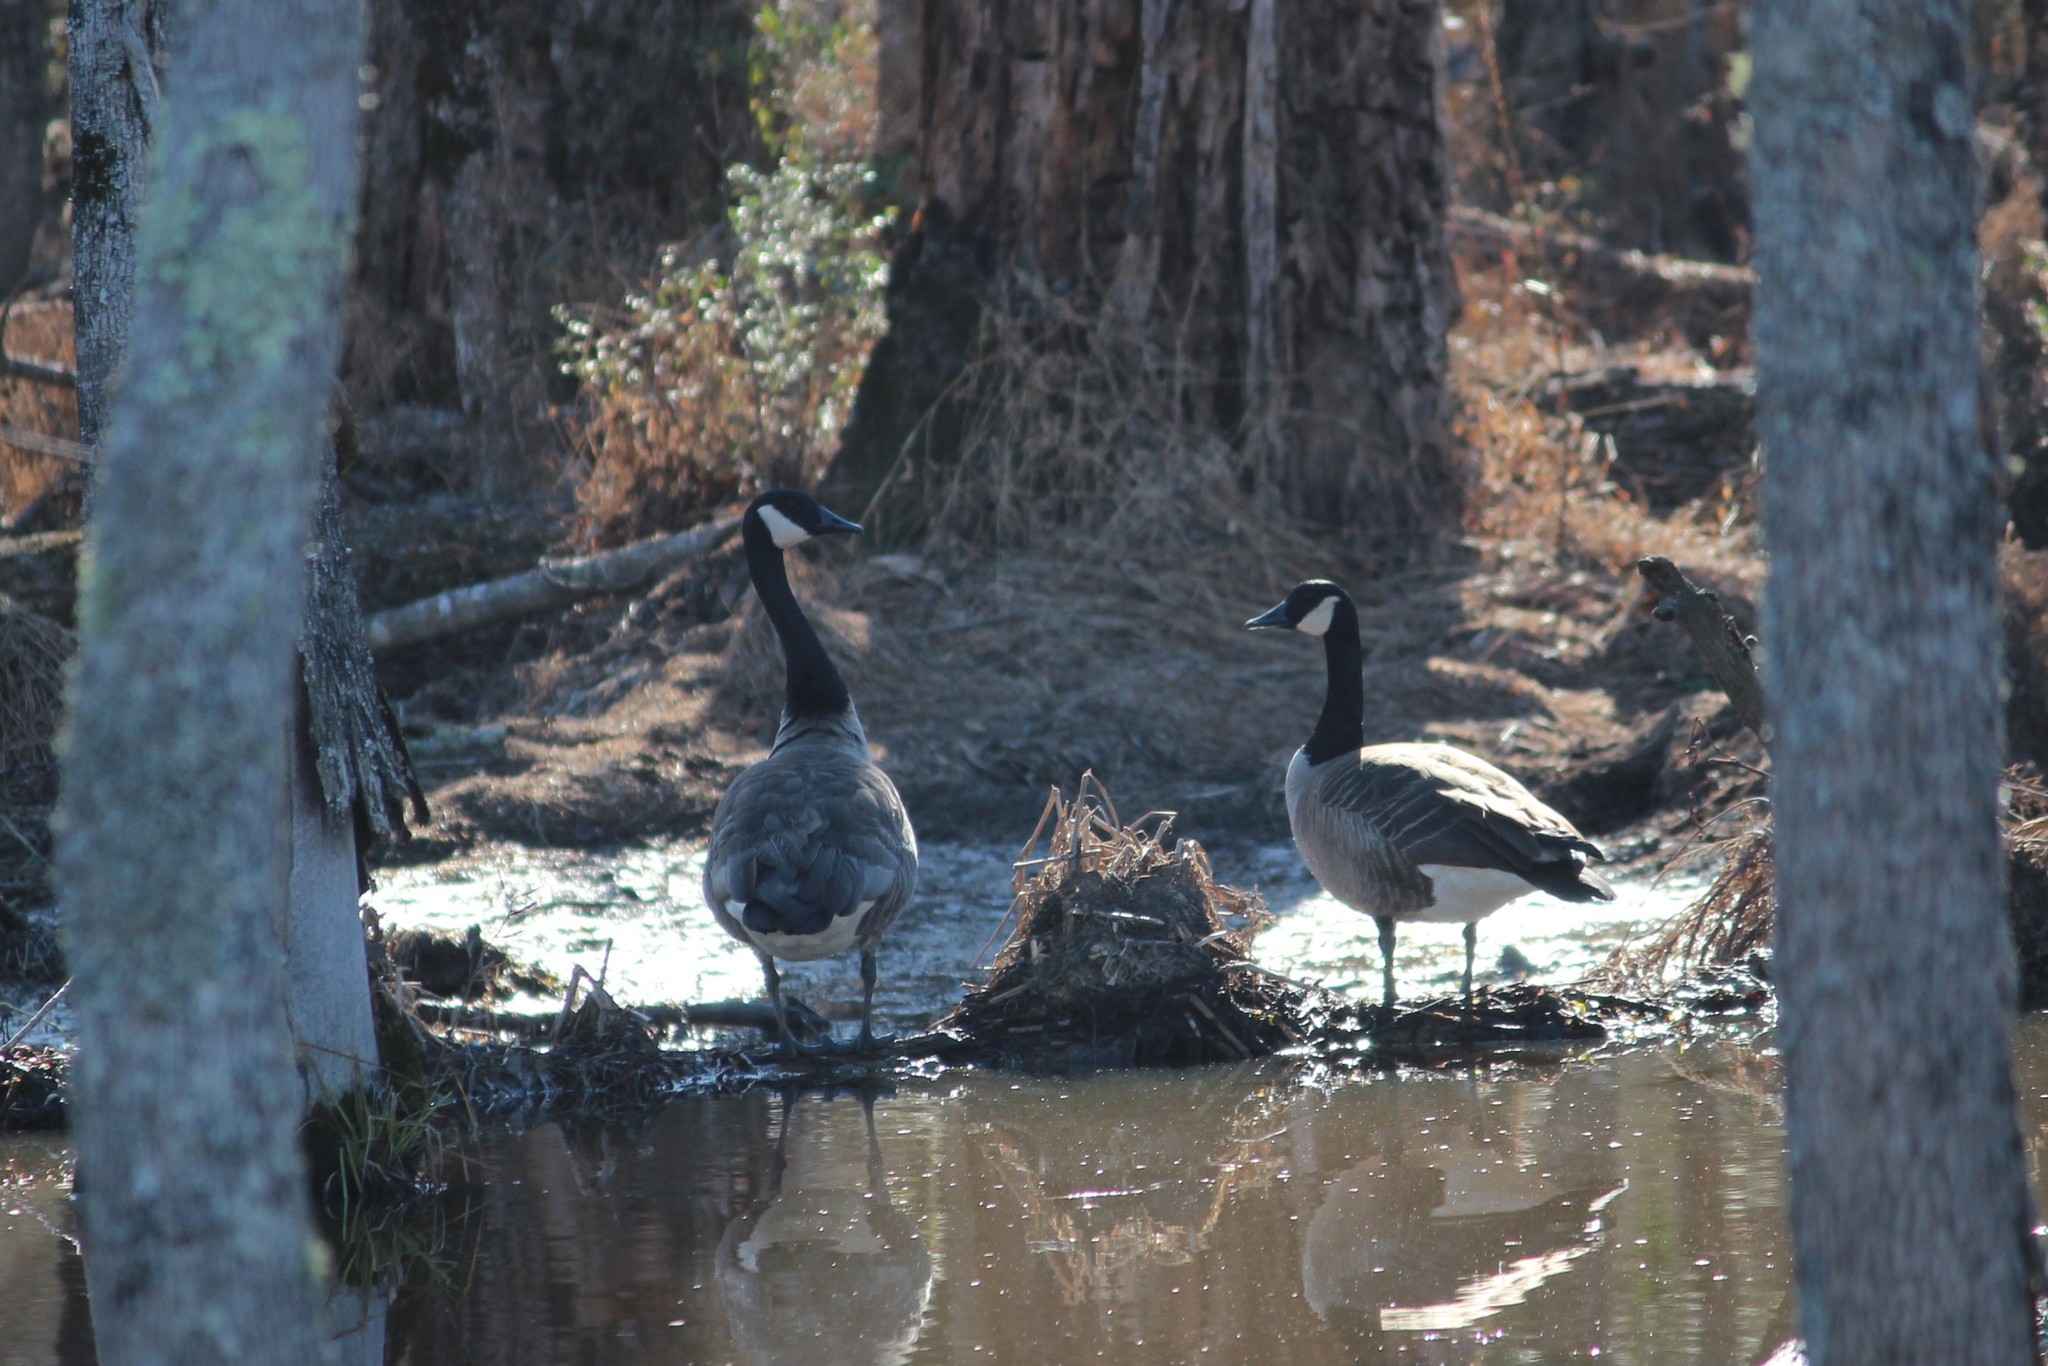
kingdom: Animalia
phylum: Chordata
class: Aves
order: Anseriformes
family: Anatidae
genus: Branta
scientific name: Branta canadensis
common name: Canada goose
